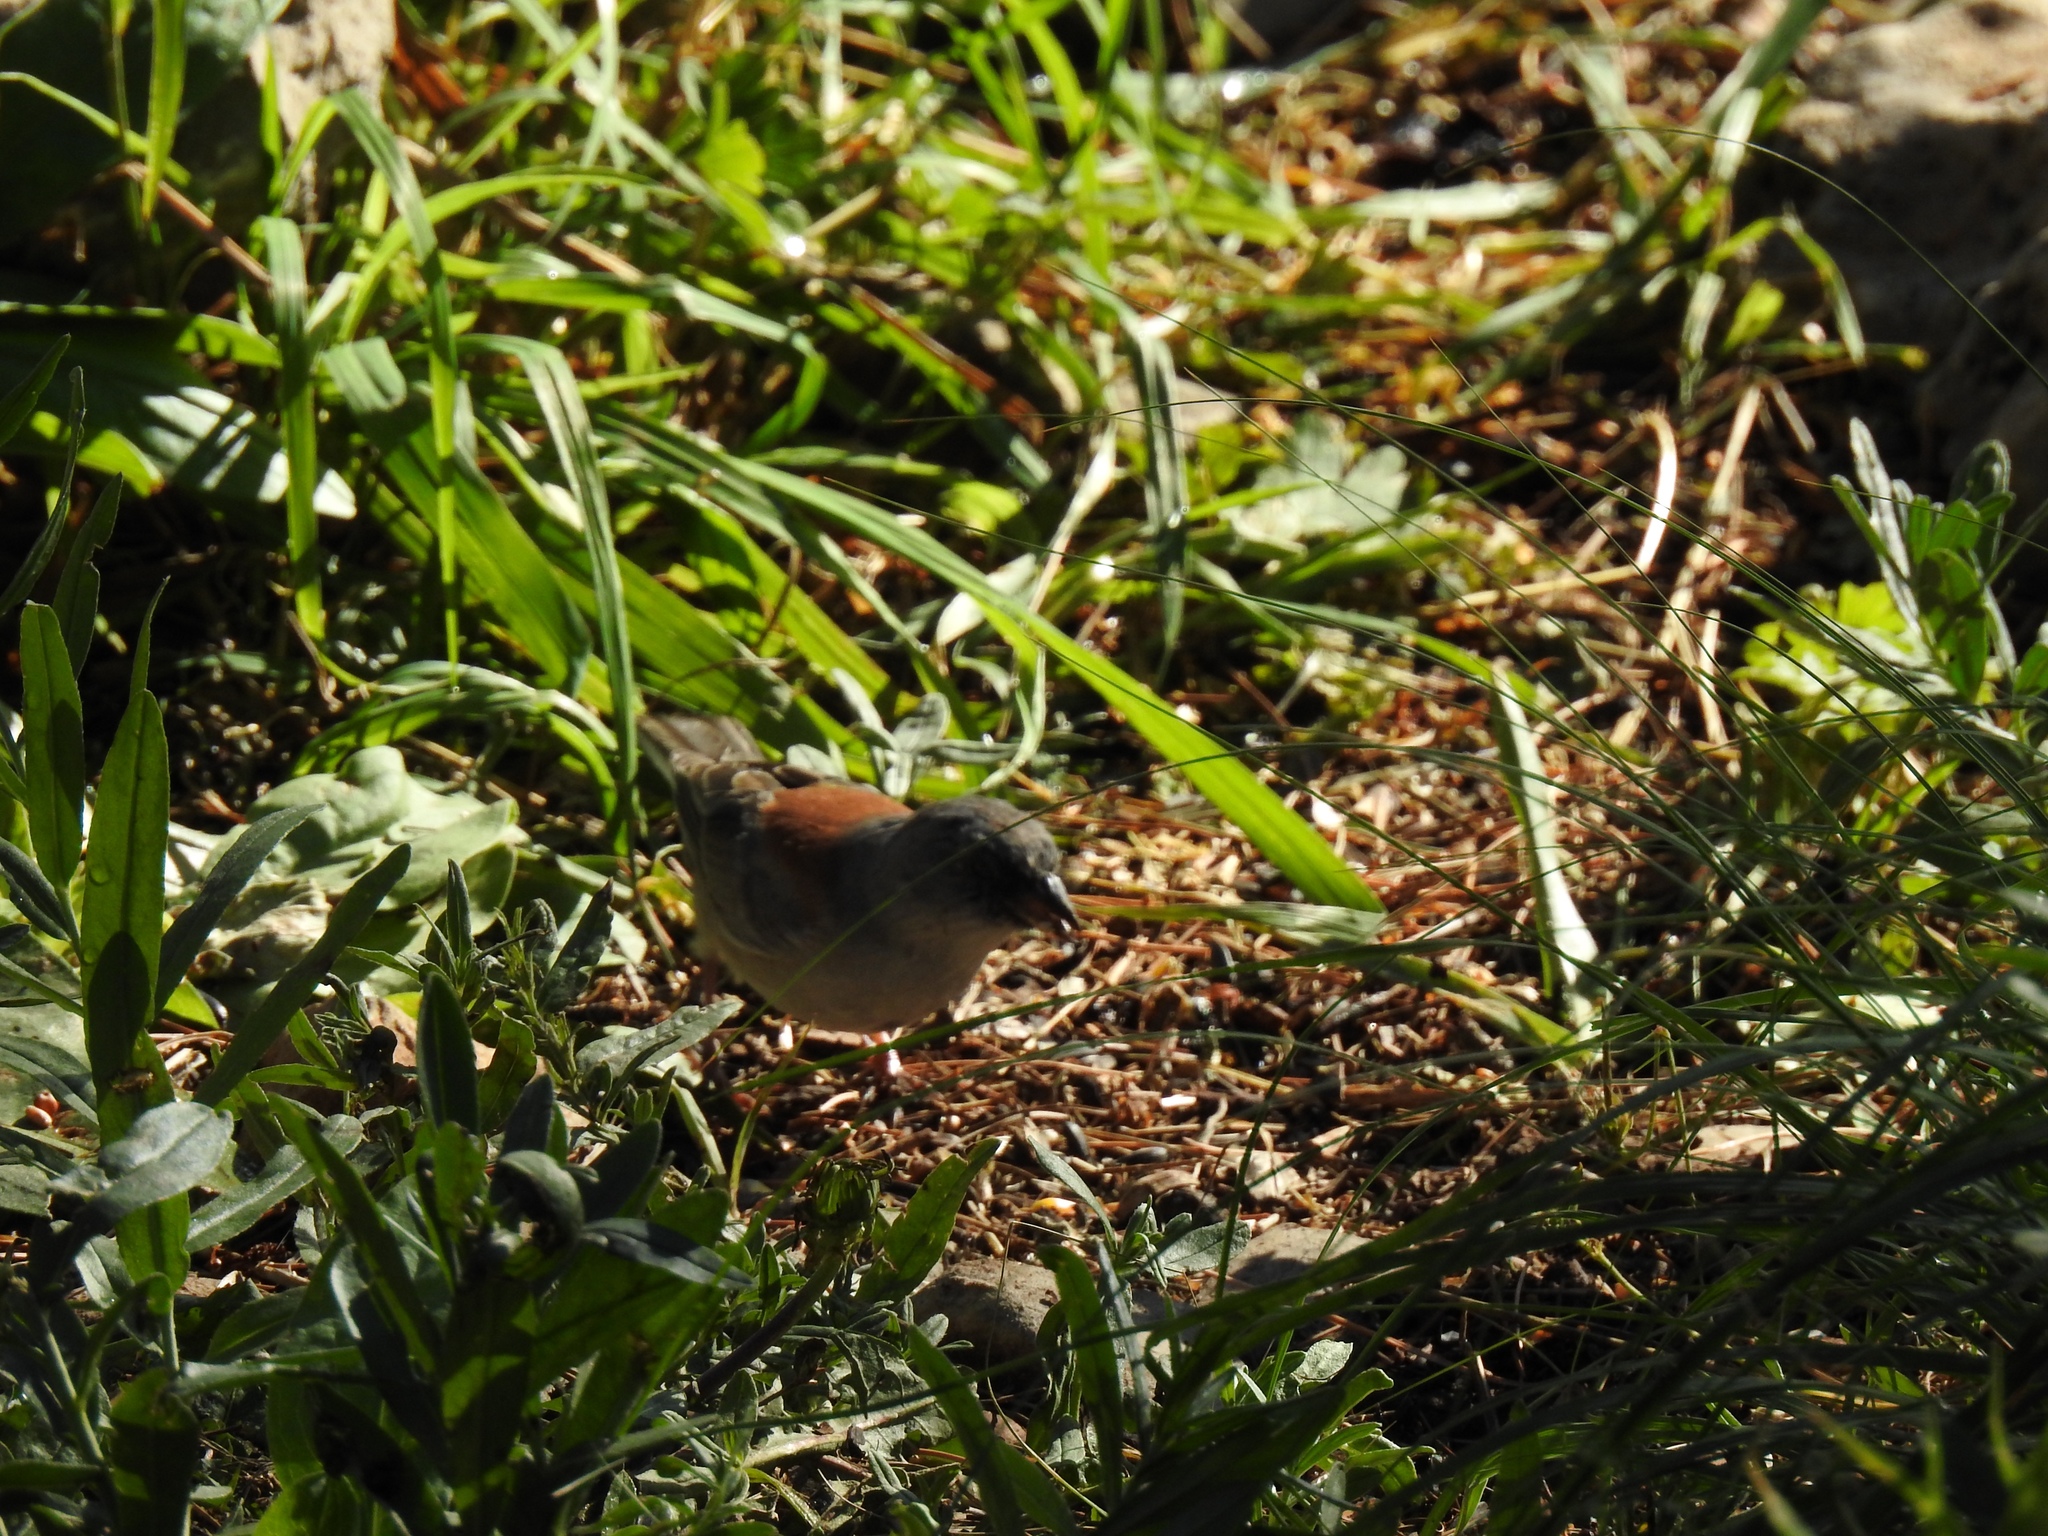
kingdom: Animalia
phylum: Chordata
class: Aves
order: Passeriformes
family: Passerellidae
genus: Junco
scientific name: Junco hyemalis
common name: Dark-eyed junco
